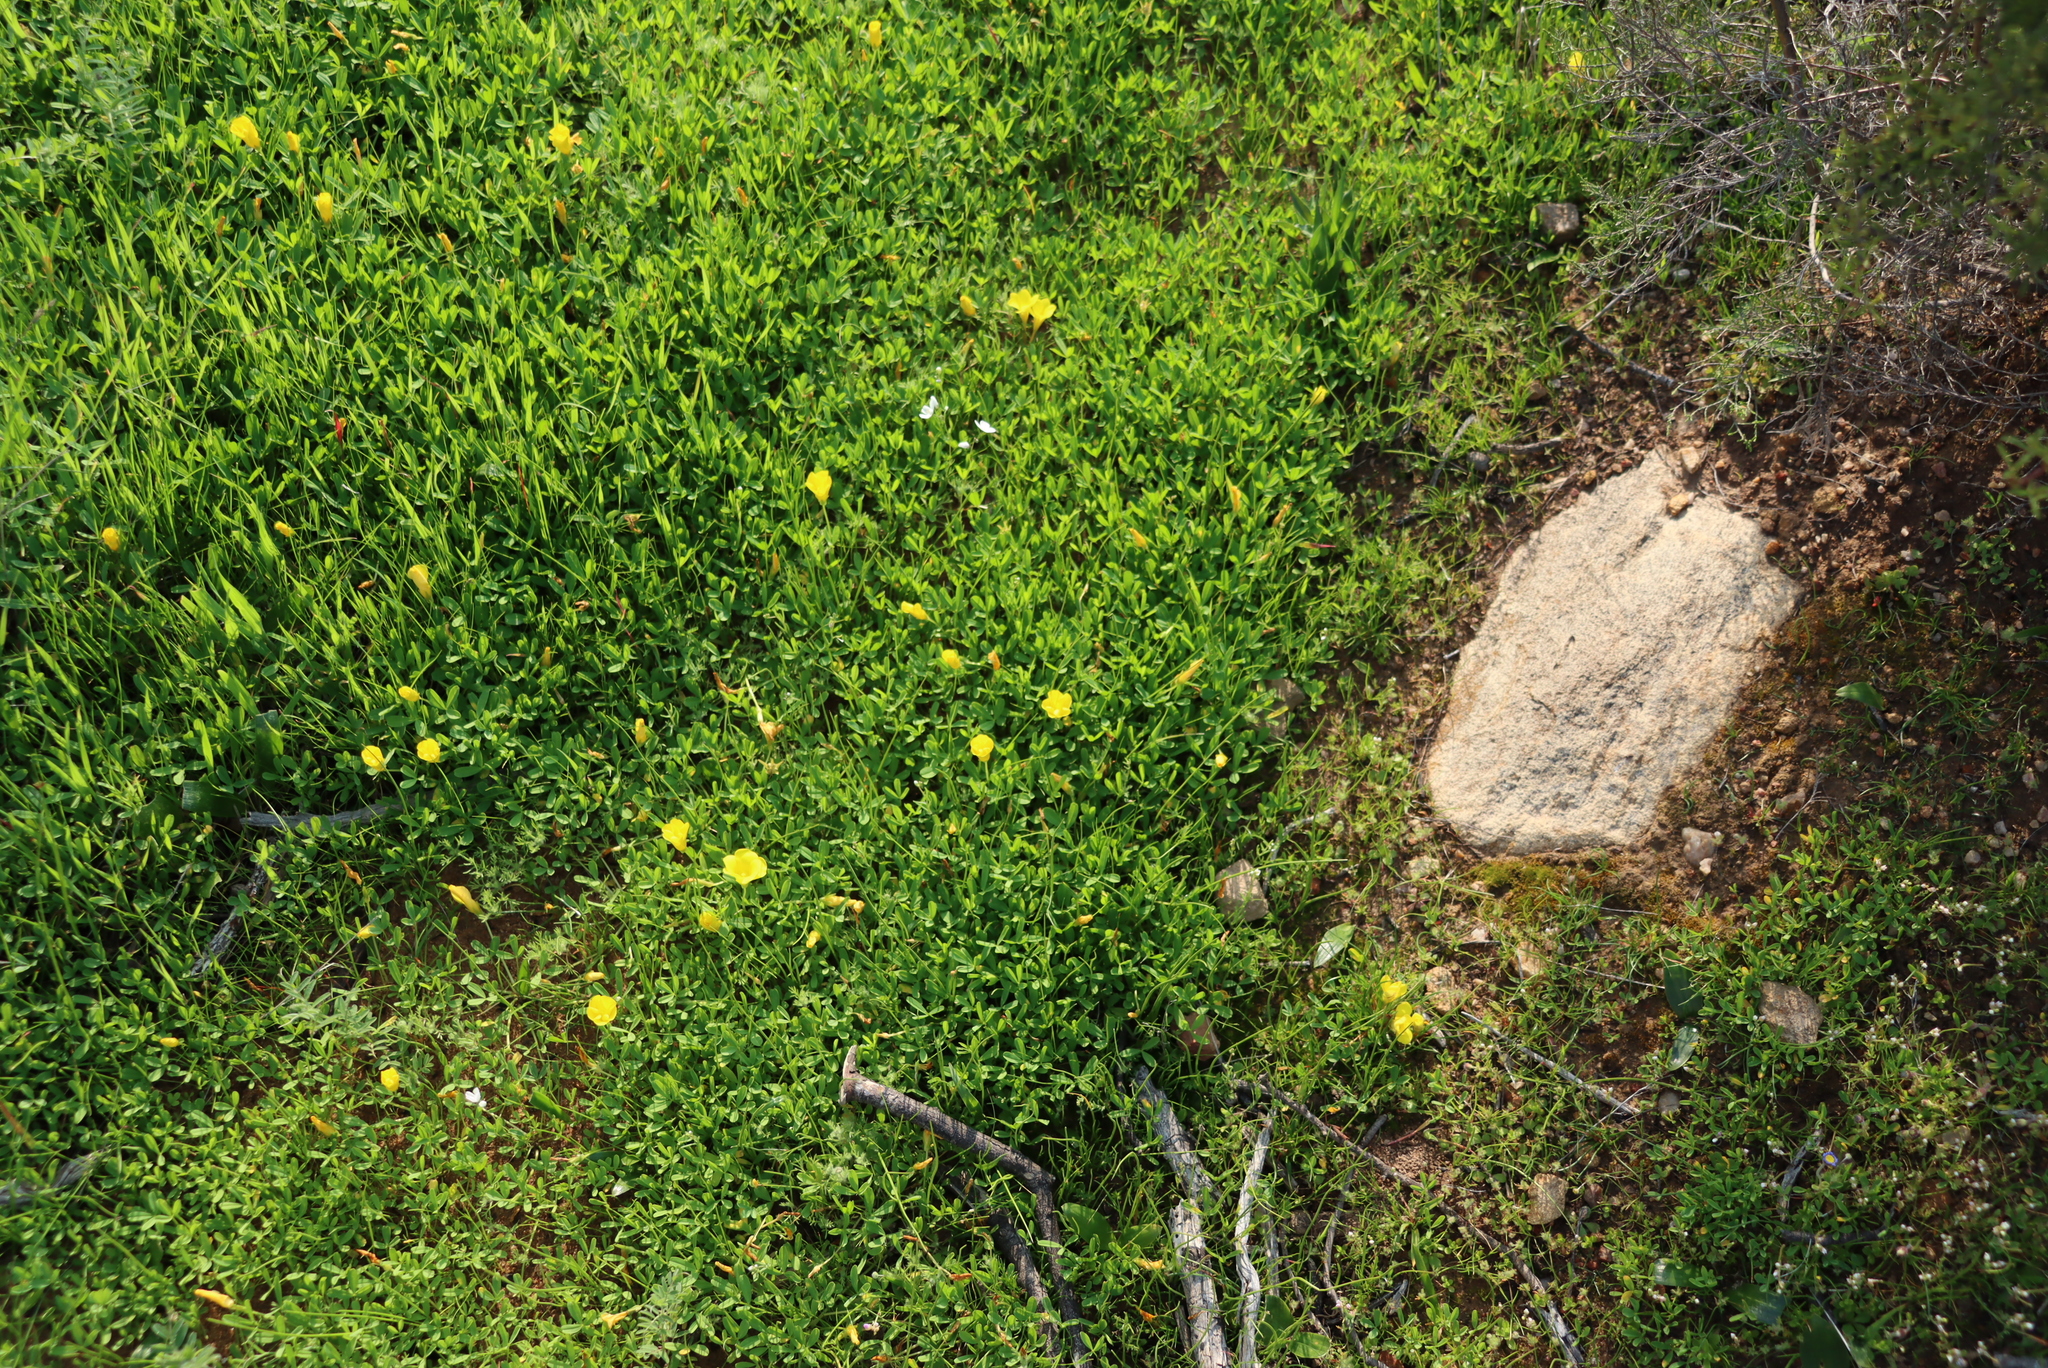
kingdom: Plantae
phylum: Tracheophyta
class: Magnoliopsida
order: Oxalidales
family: Oxalidaceae
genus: Oxalis
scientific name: Oxalis namaquana
